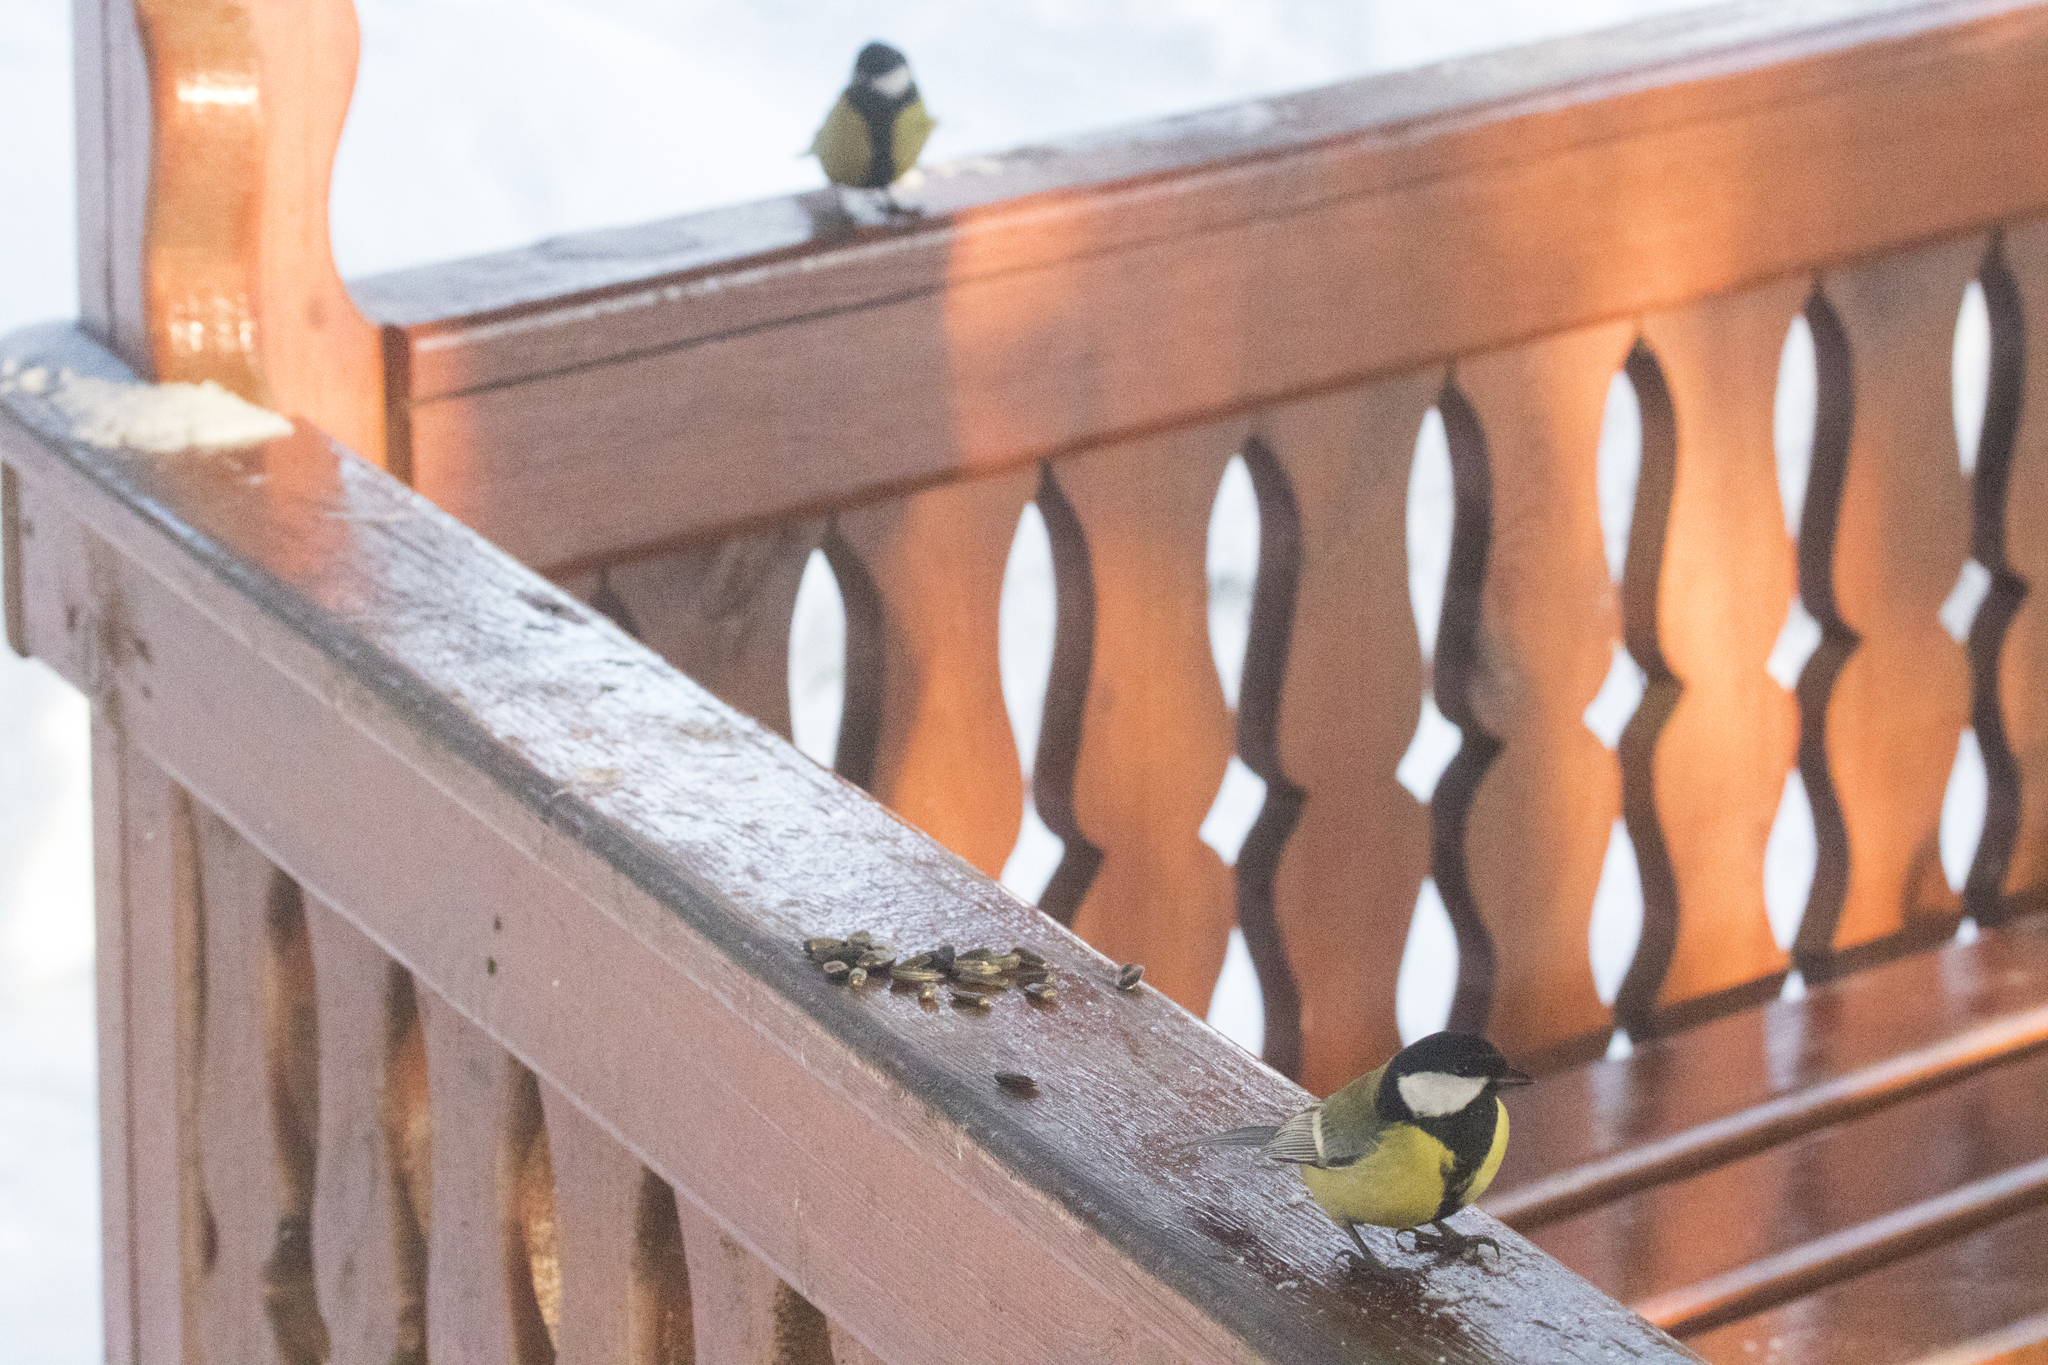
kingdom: Animalia
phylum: Chordata
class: Aves
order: Passeriformes
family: Paridae
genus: Parus
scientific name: Parus major
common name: Great tit
